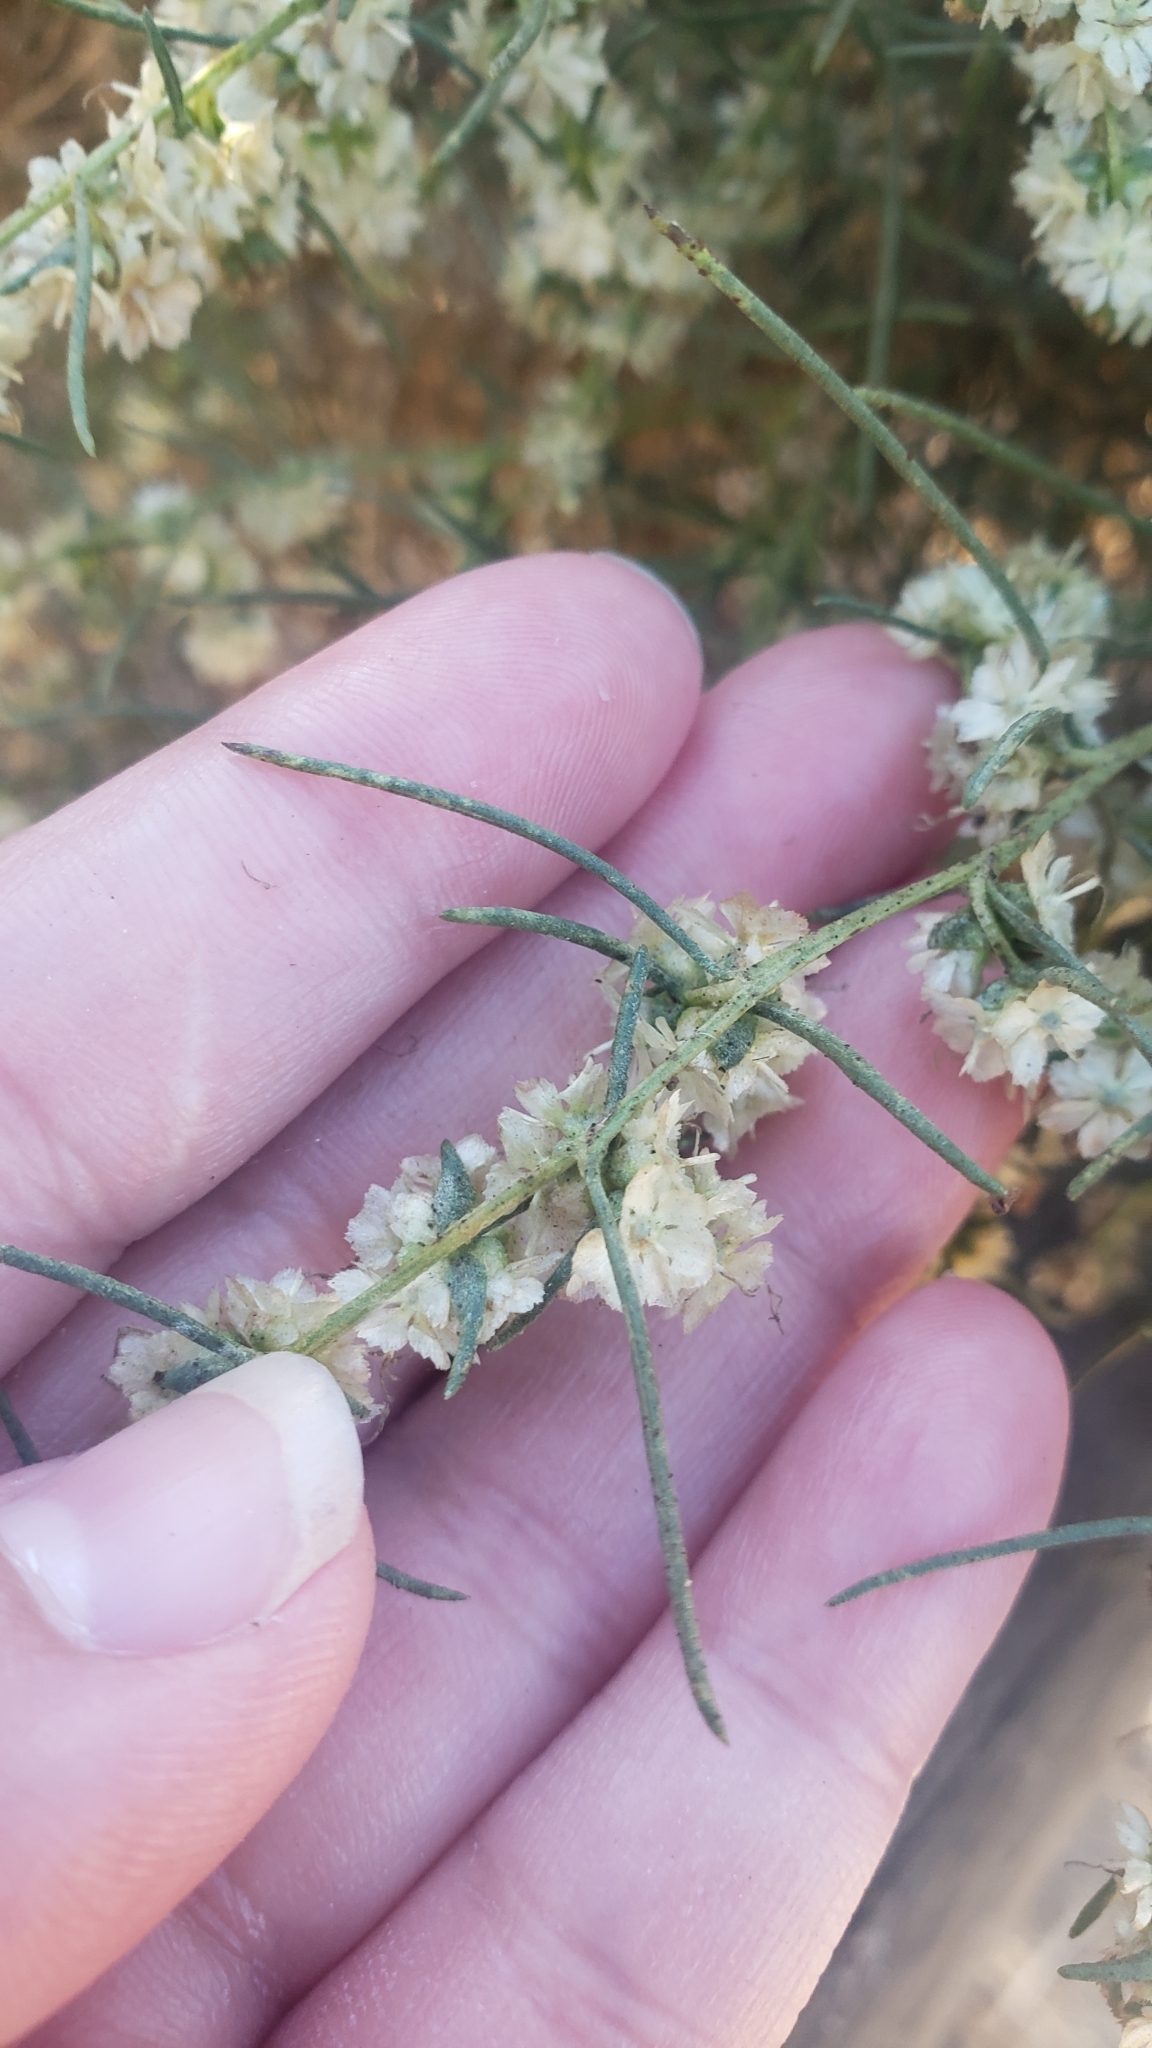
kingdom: Plantae
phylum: Tracheophyta
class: Magnoliopsida
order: Asterales
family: Asteraceae
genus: Ambrosia
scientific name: Ambrosia monogyra
